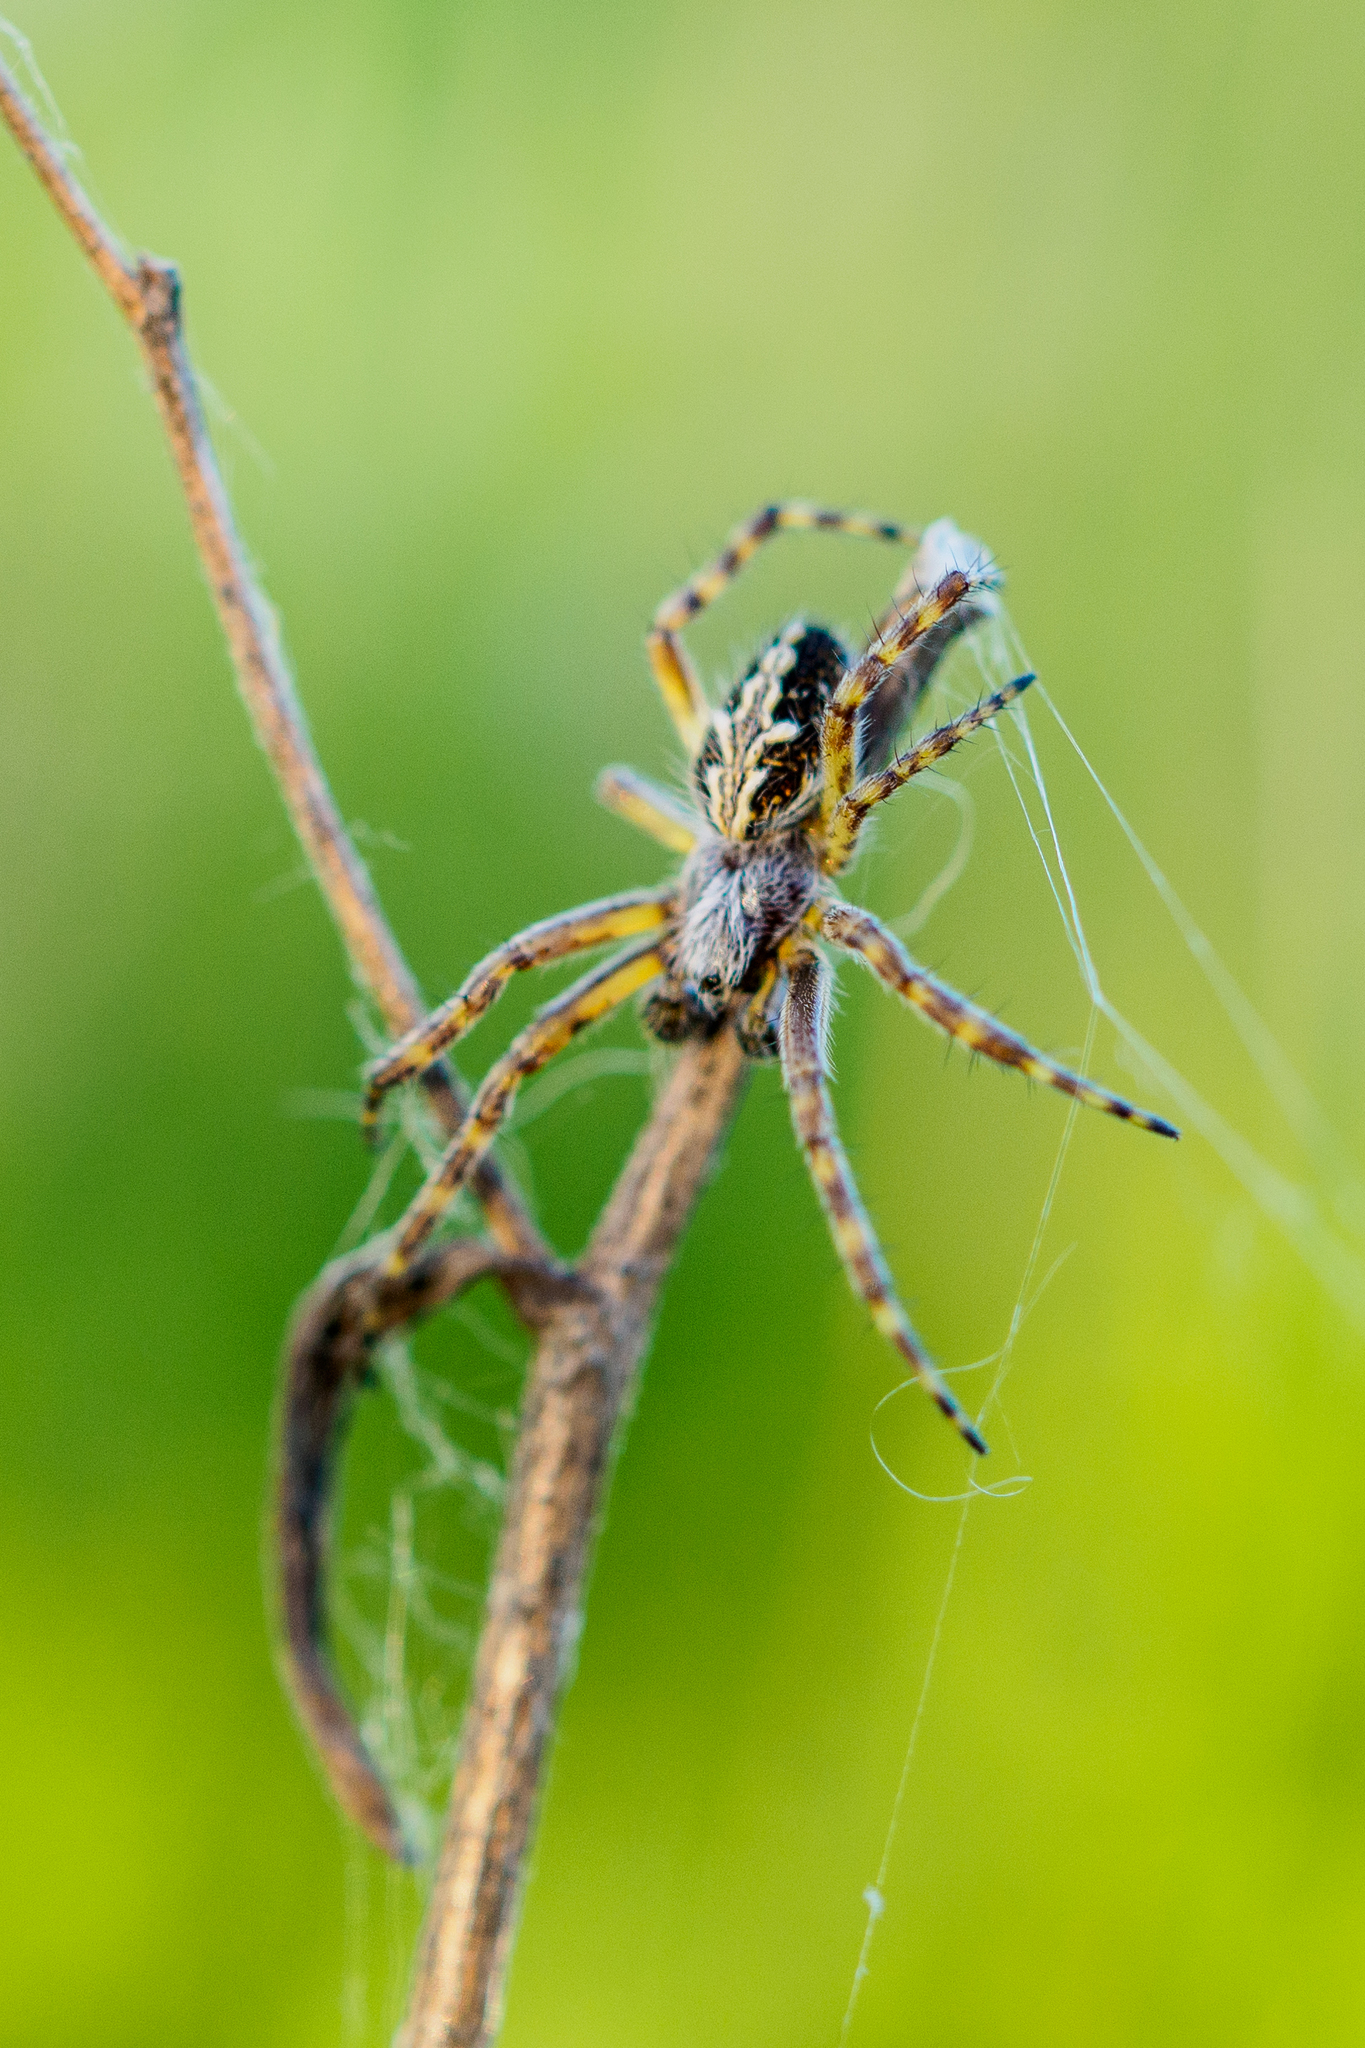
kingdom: Animalia
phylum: Arthropoda
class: Arachnida
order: Araneae
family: Araneidae
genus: Aculepeira
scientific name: Aculepeira ceropegia
